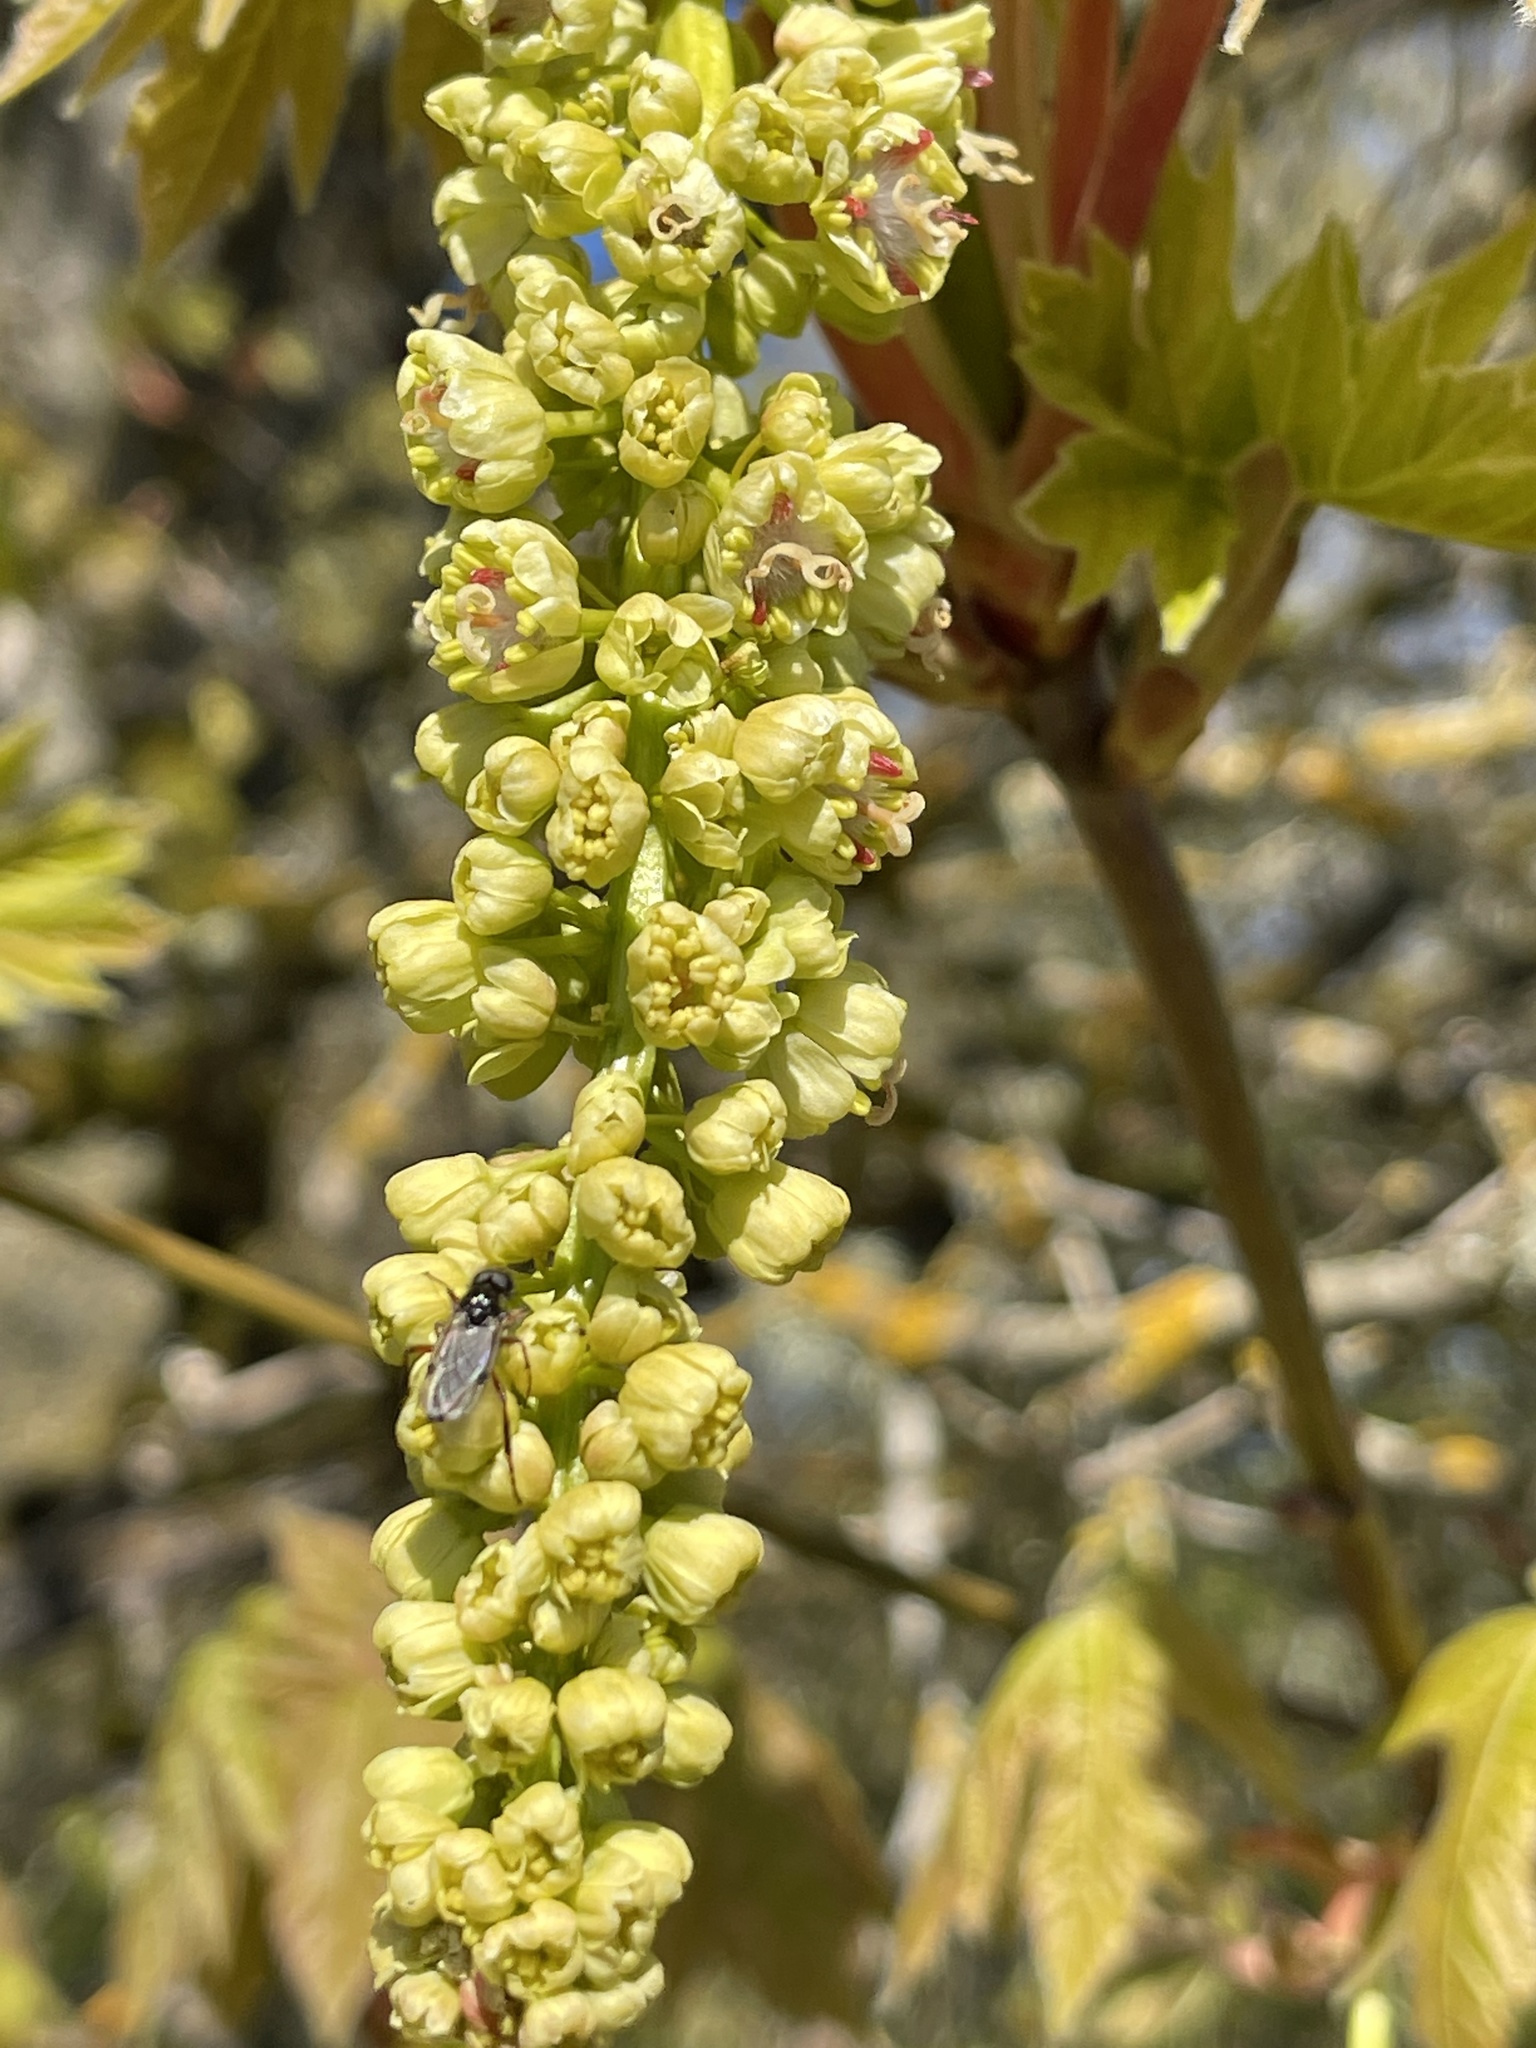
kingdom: Plantae
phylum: Tracheophyta
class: Magnoliopsida
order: Sapindales
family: Sapindaceae
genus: Acer
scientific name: Acer macrophyllum
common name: Oregon maple
